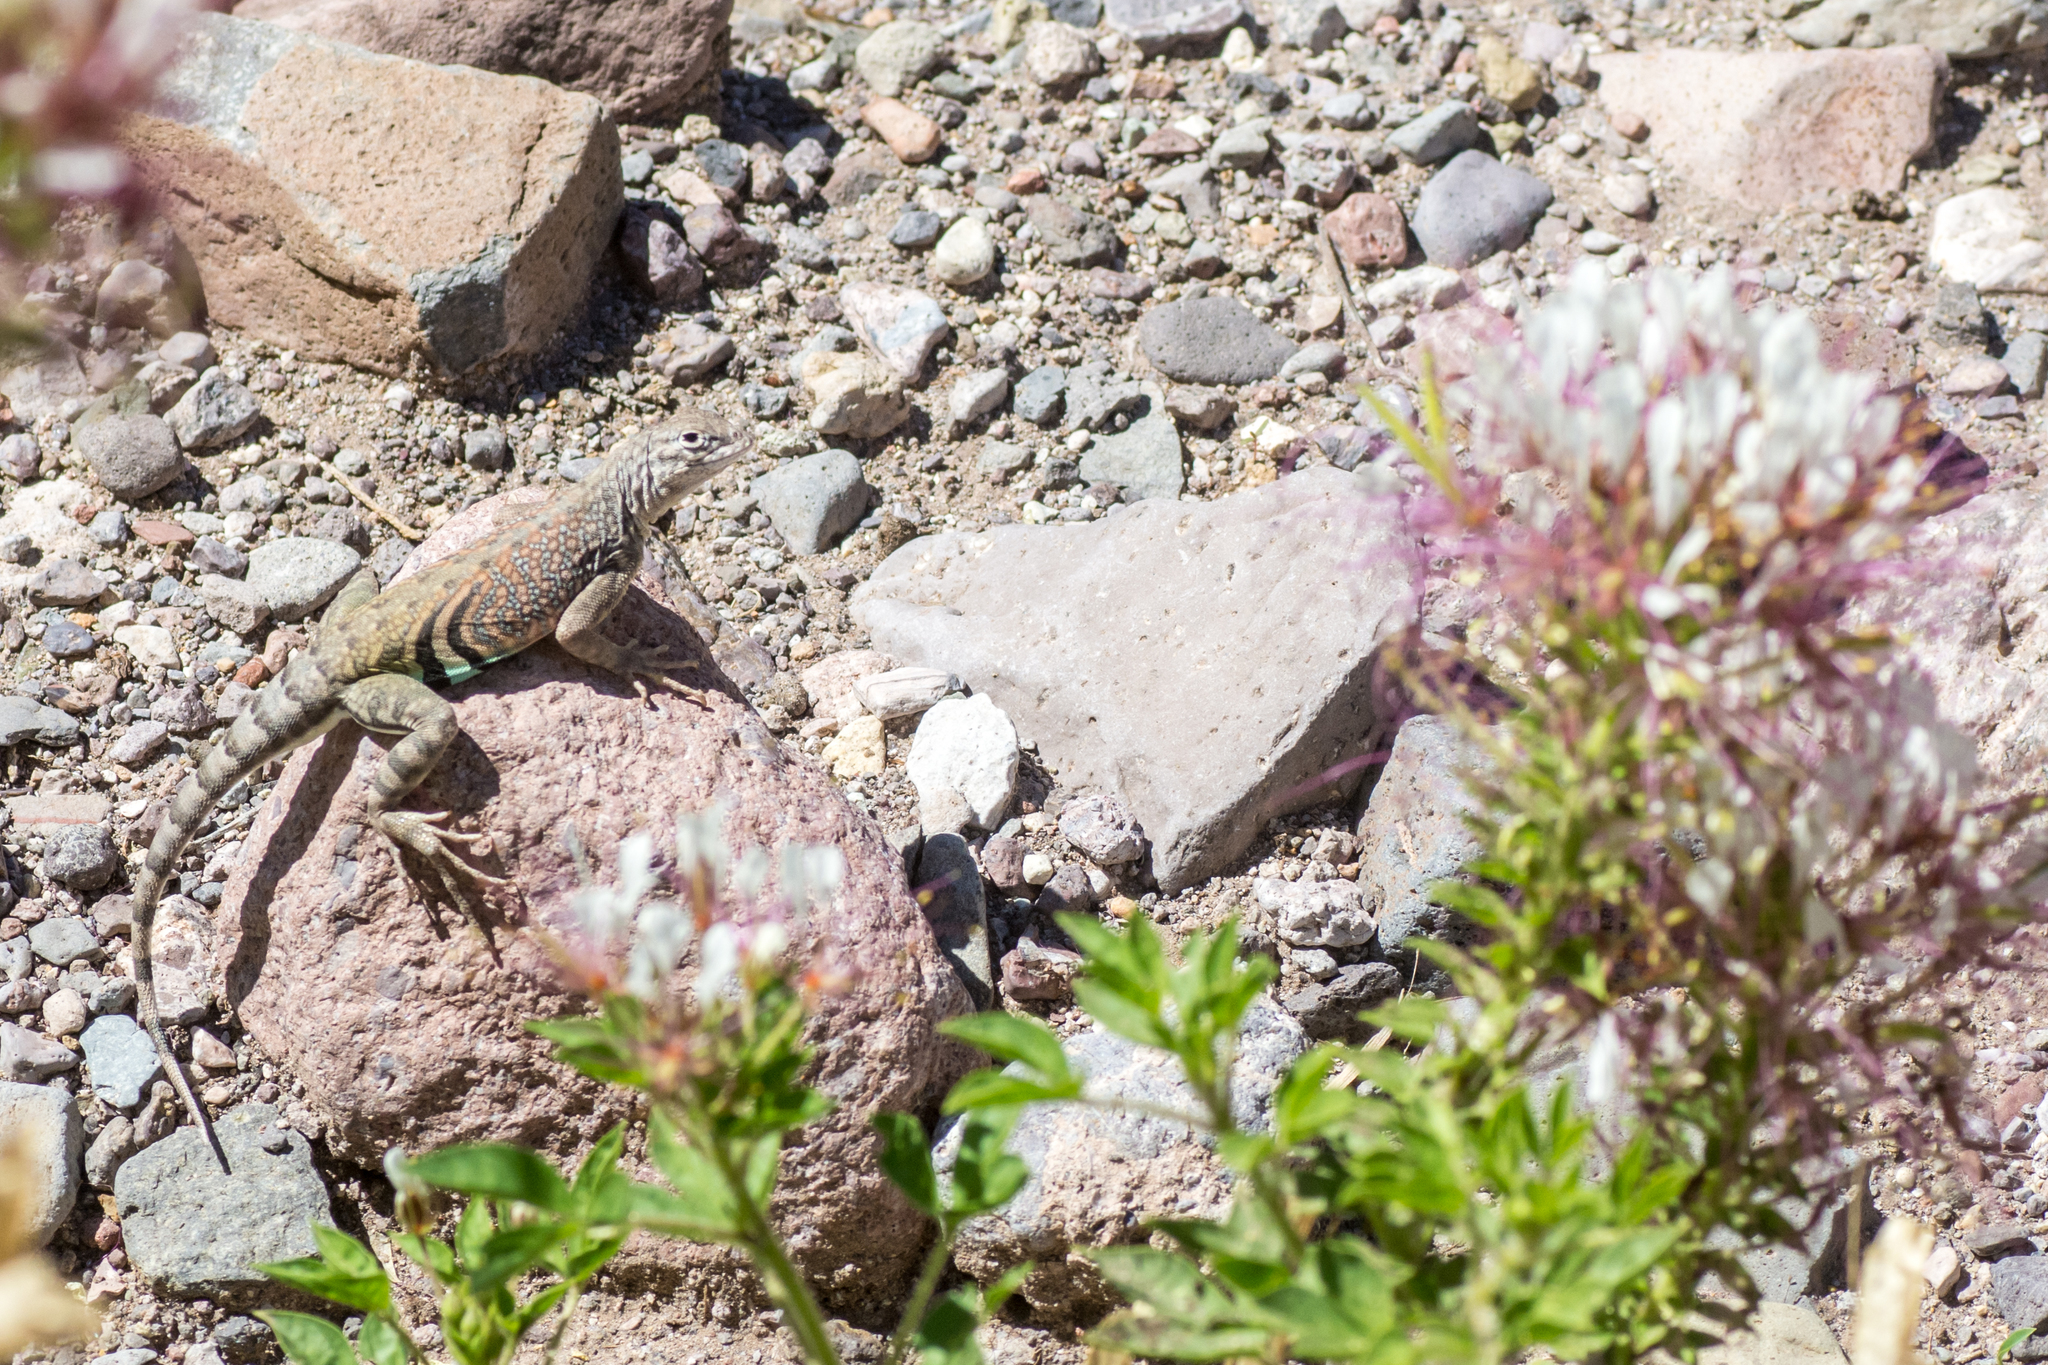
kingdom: Animalia
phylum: Chordata
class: Squamata
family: Phrynosomatidae
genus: Cophosaurus
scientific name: Cophosaurus texanus
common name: Greater earless lizard
